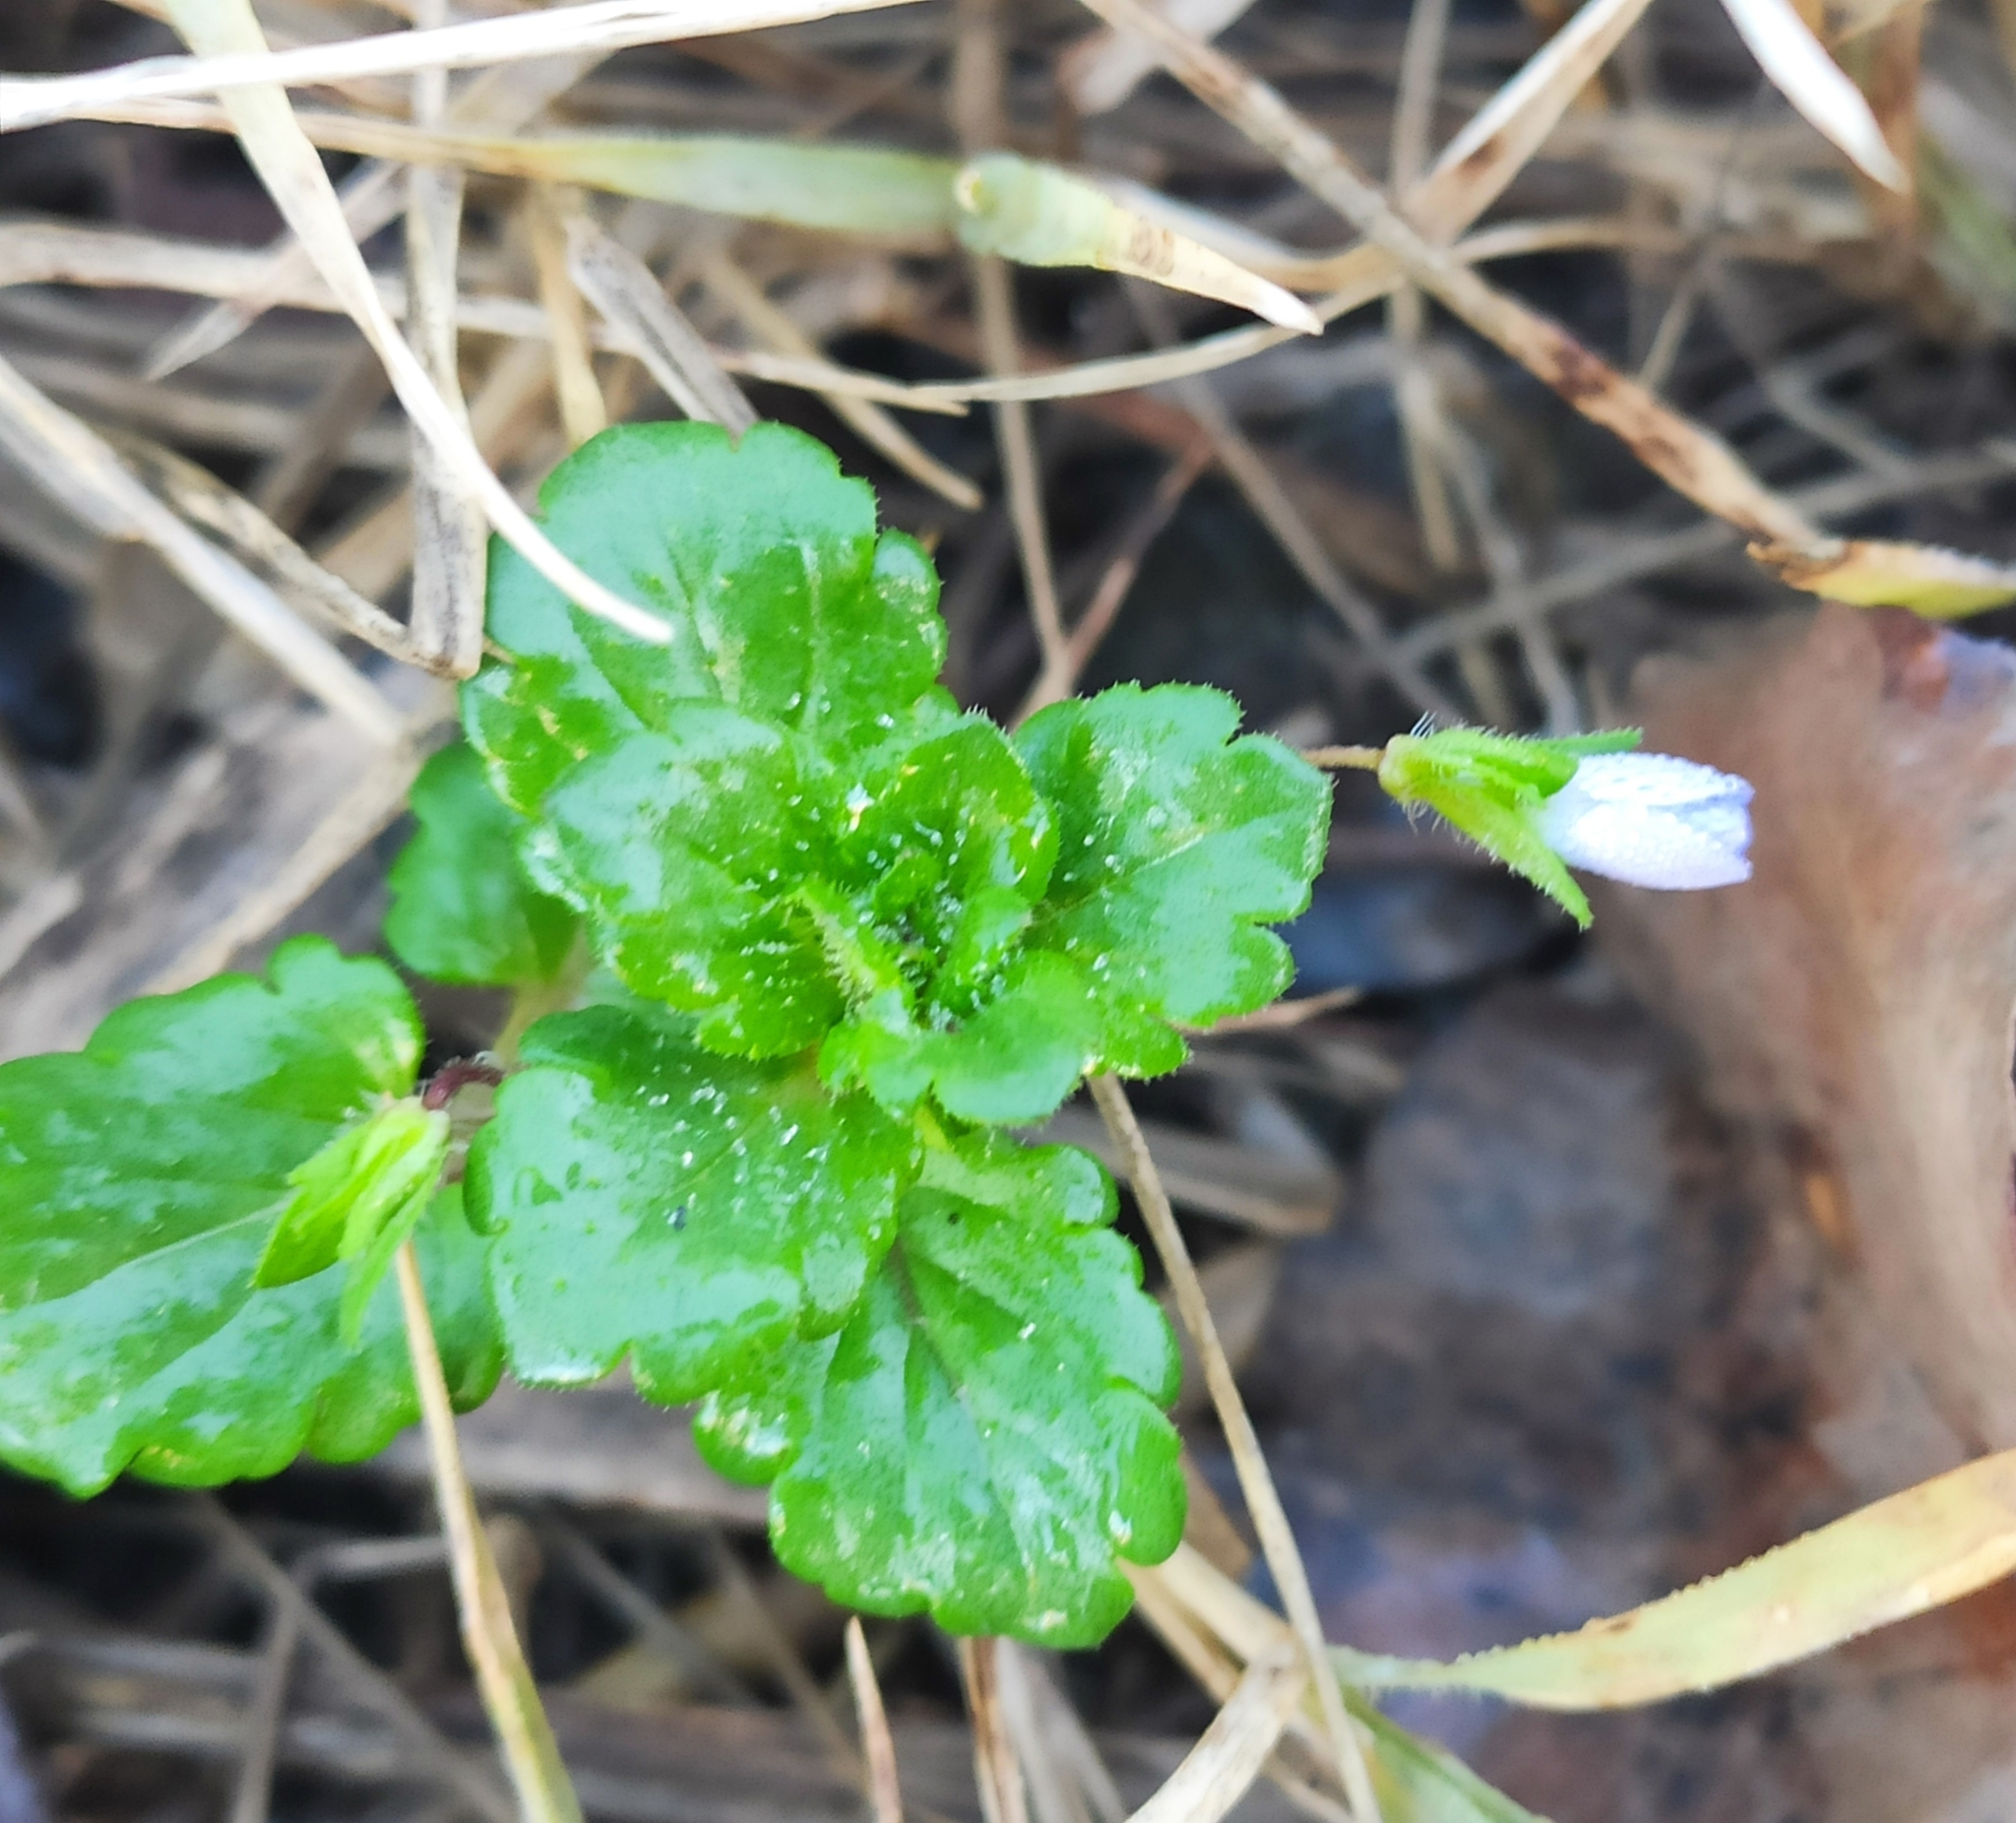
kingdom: Plantae
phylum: Tracheophyta
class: Magnoliopsida
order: Lamiales
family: Plantaginaceae
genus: Veronica
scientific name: Veronica persica
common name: Common field-speedwell
